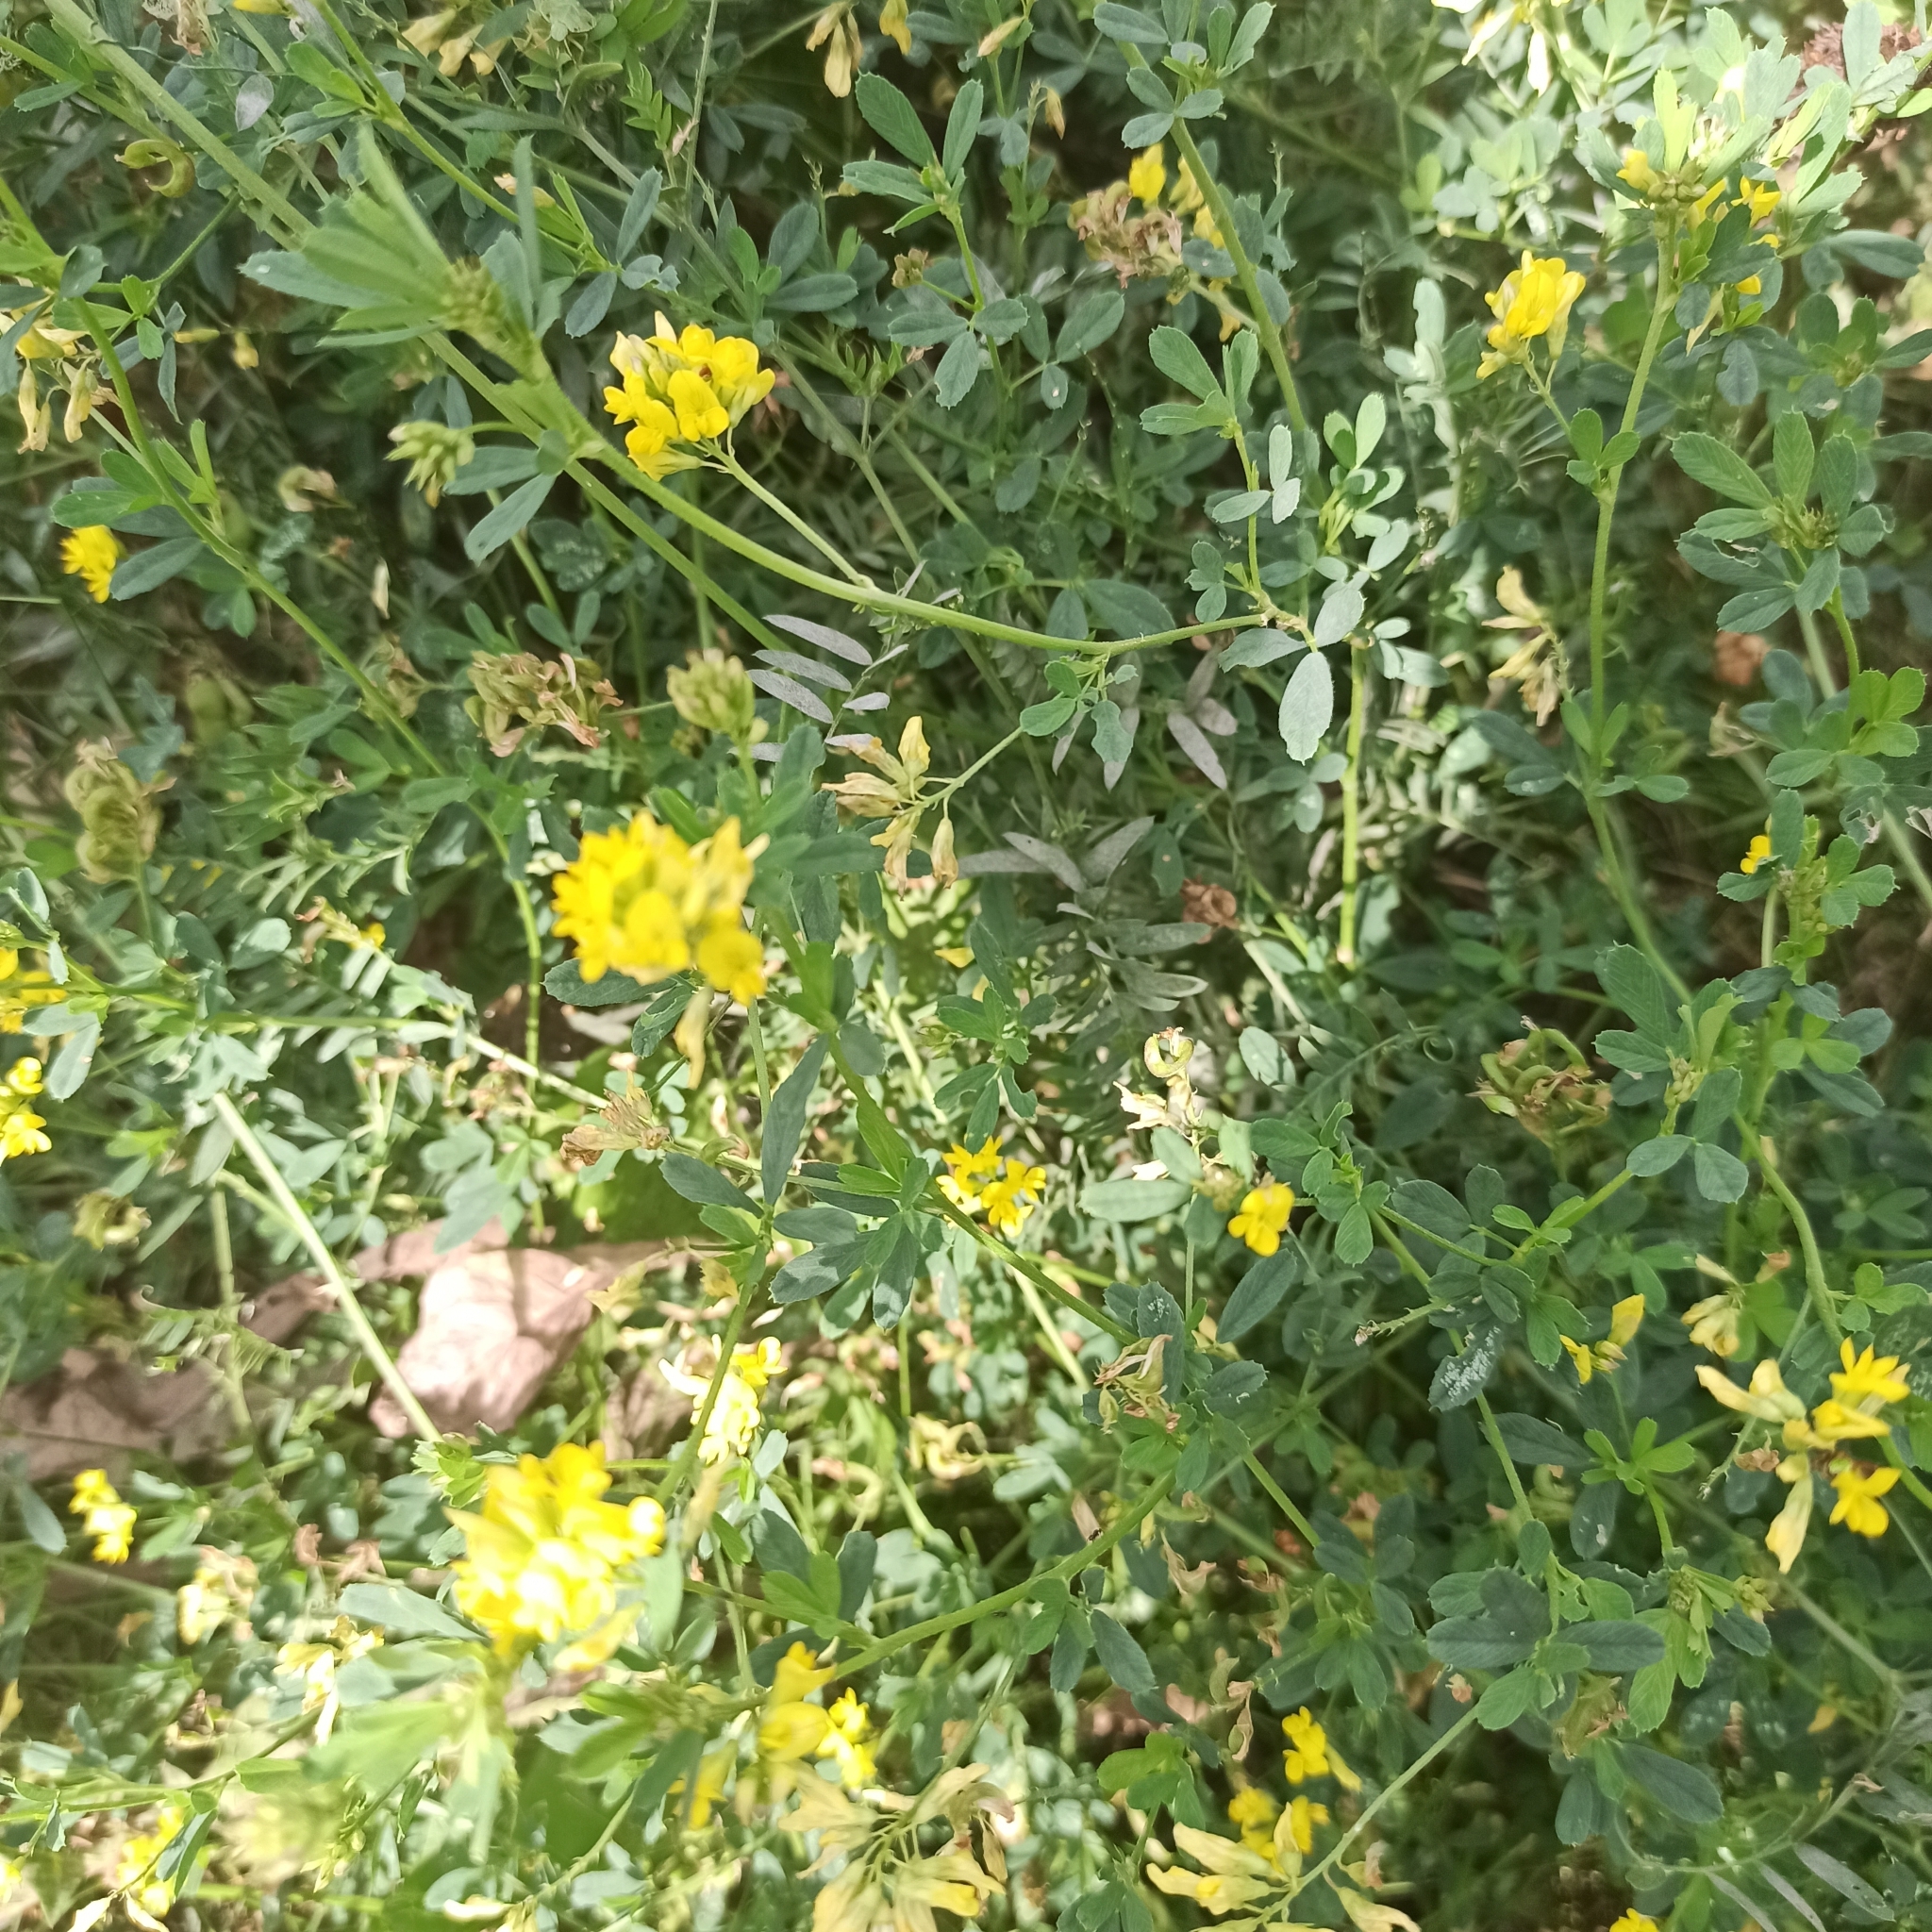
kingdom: Plantae
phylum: Tracheophyta
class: Magnoliopsida
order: Fabales
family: Fabaceae
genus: Medicago
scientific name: Medicago falcata
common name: Sickle medick
